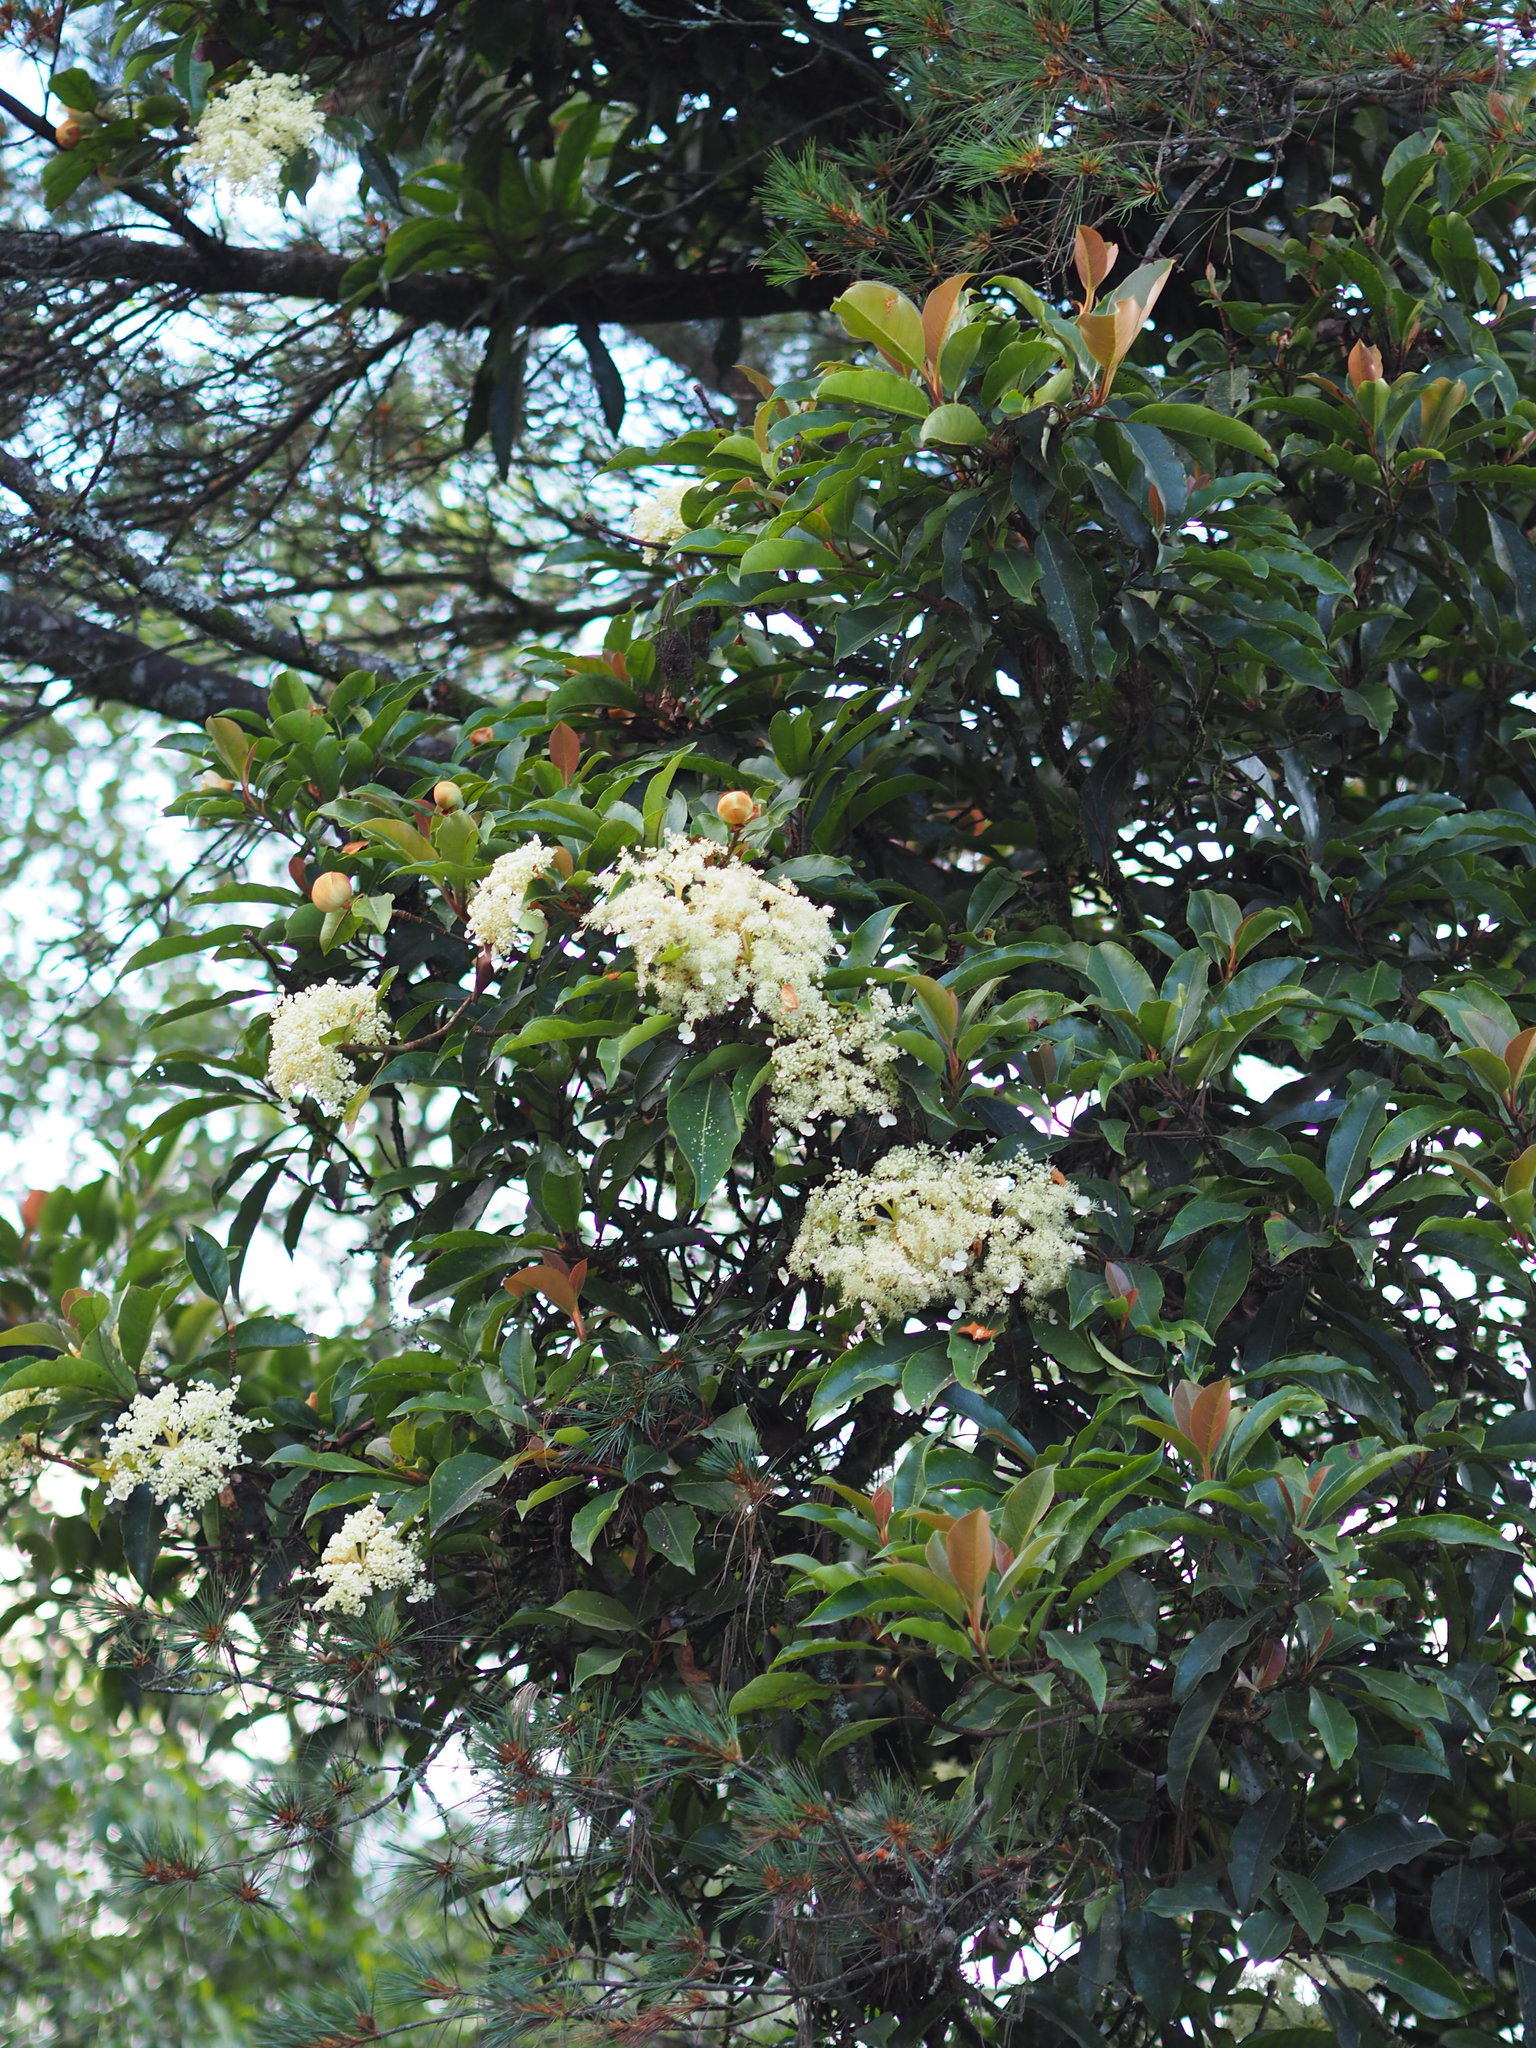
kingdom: Plantae
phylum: Tracheophyta
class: Magnoliopsida
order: Cornales
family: Hydrangeaceae
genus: Hydrangea
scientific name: Hydrangea integrifolia
